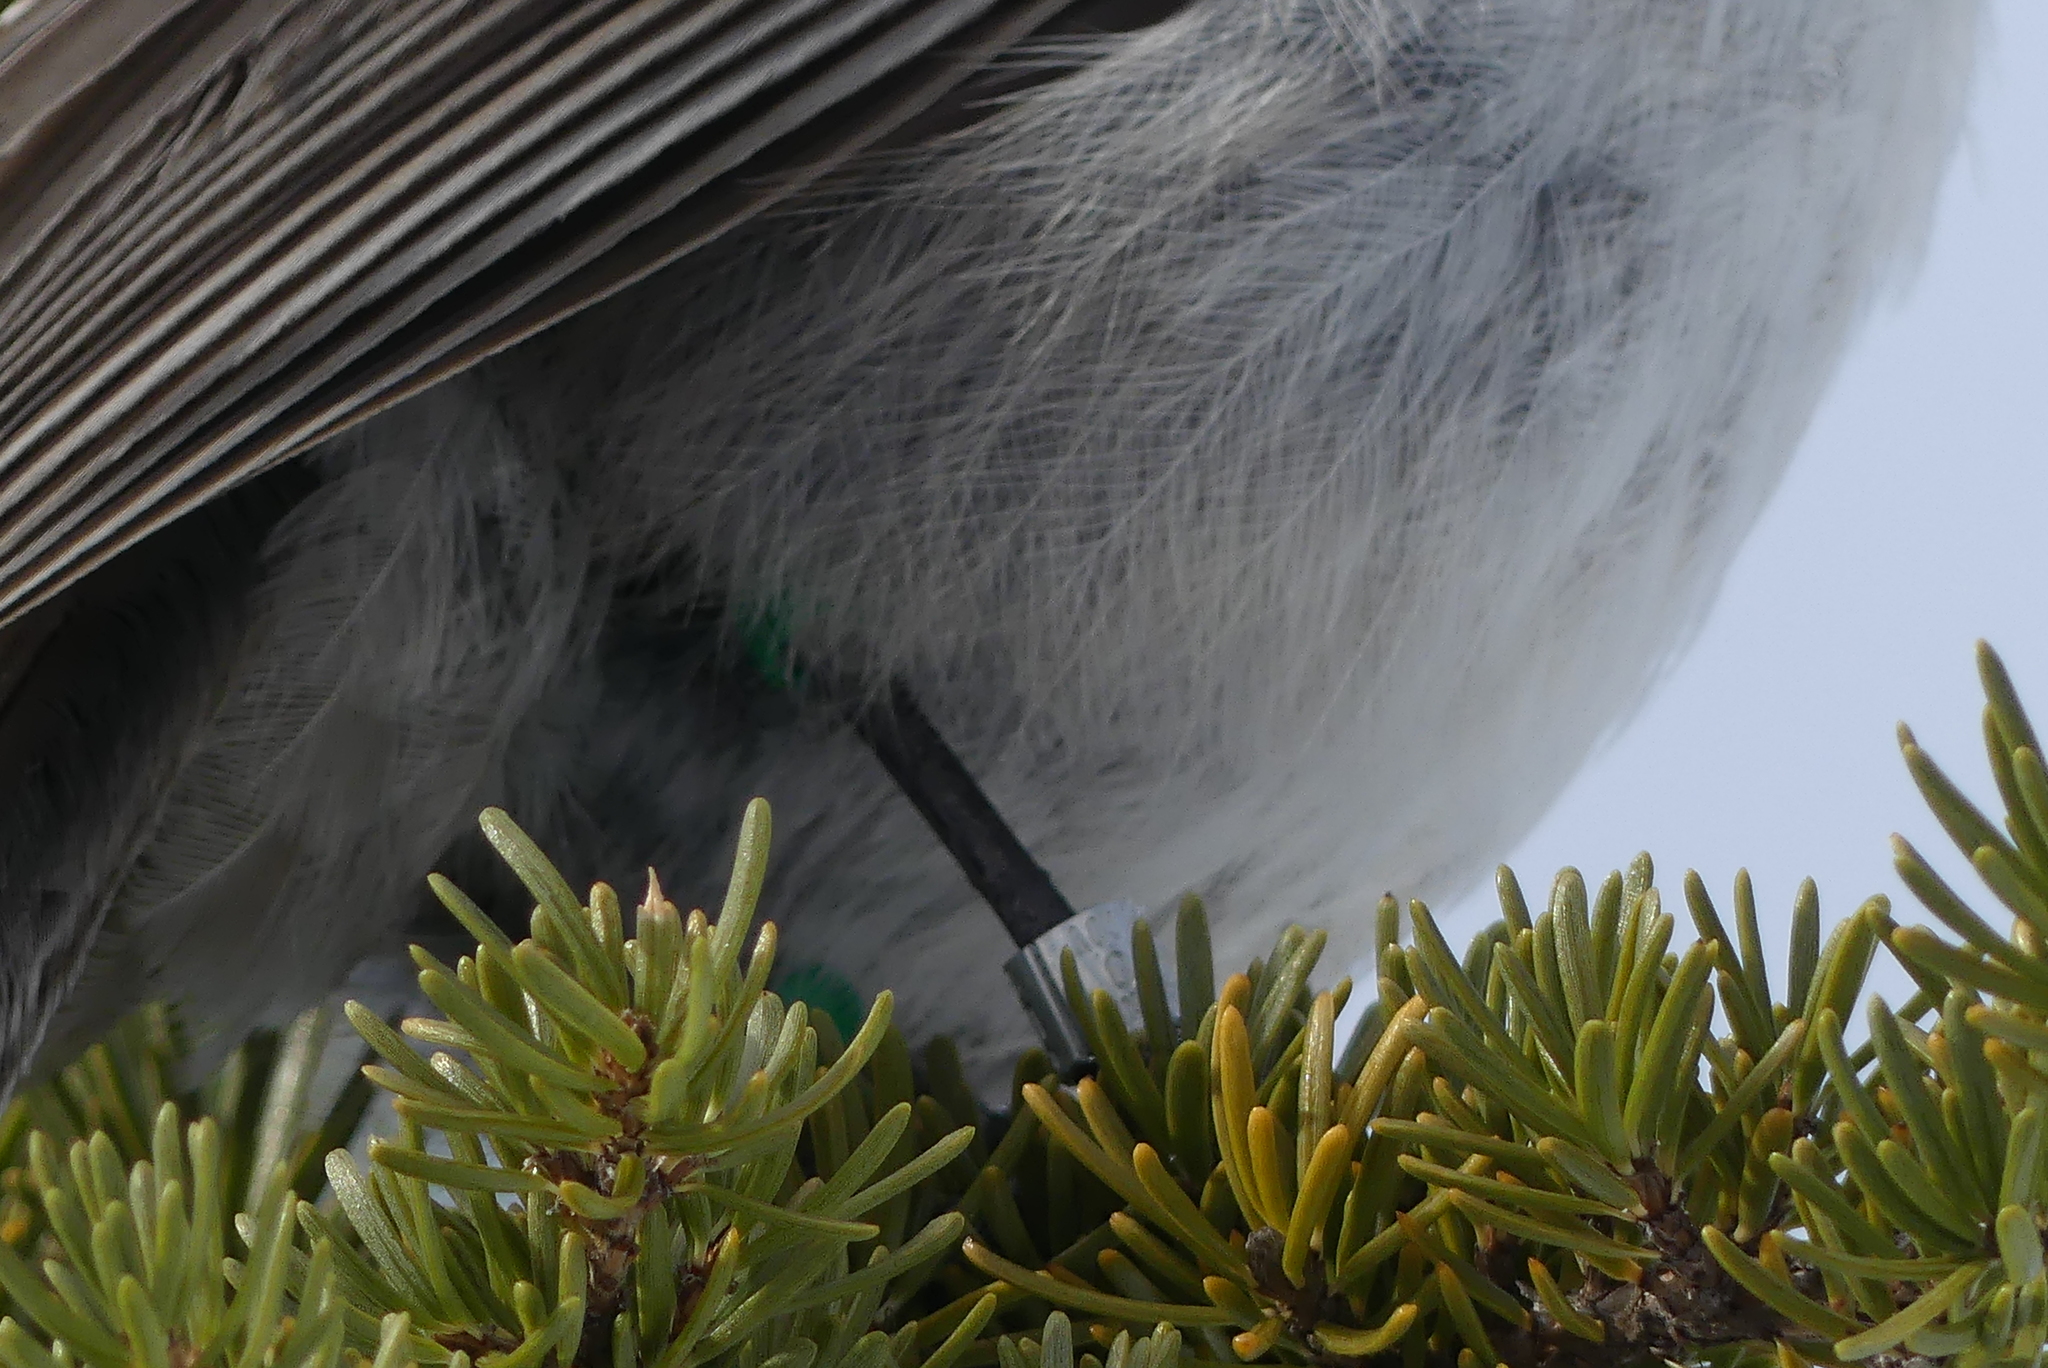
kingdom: Animalia
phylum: Chordata
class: Aves
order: Passeriformes
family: Corvidae
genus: Perisoreus
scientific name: Perisoreus canadensis
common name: Gray jay
